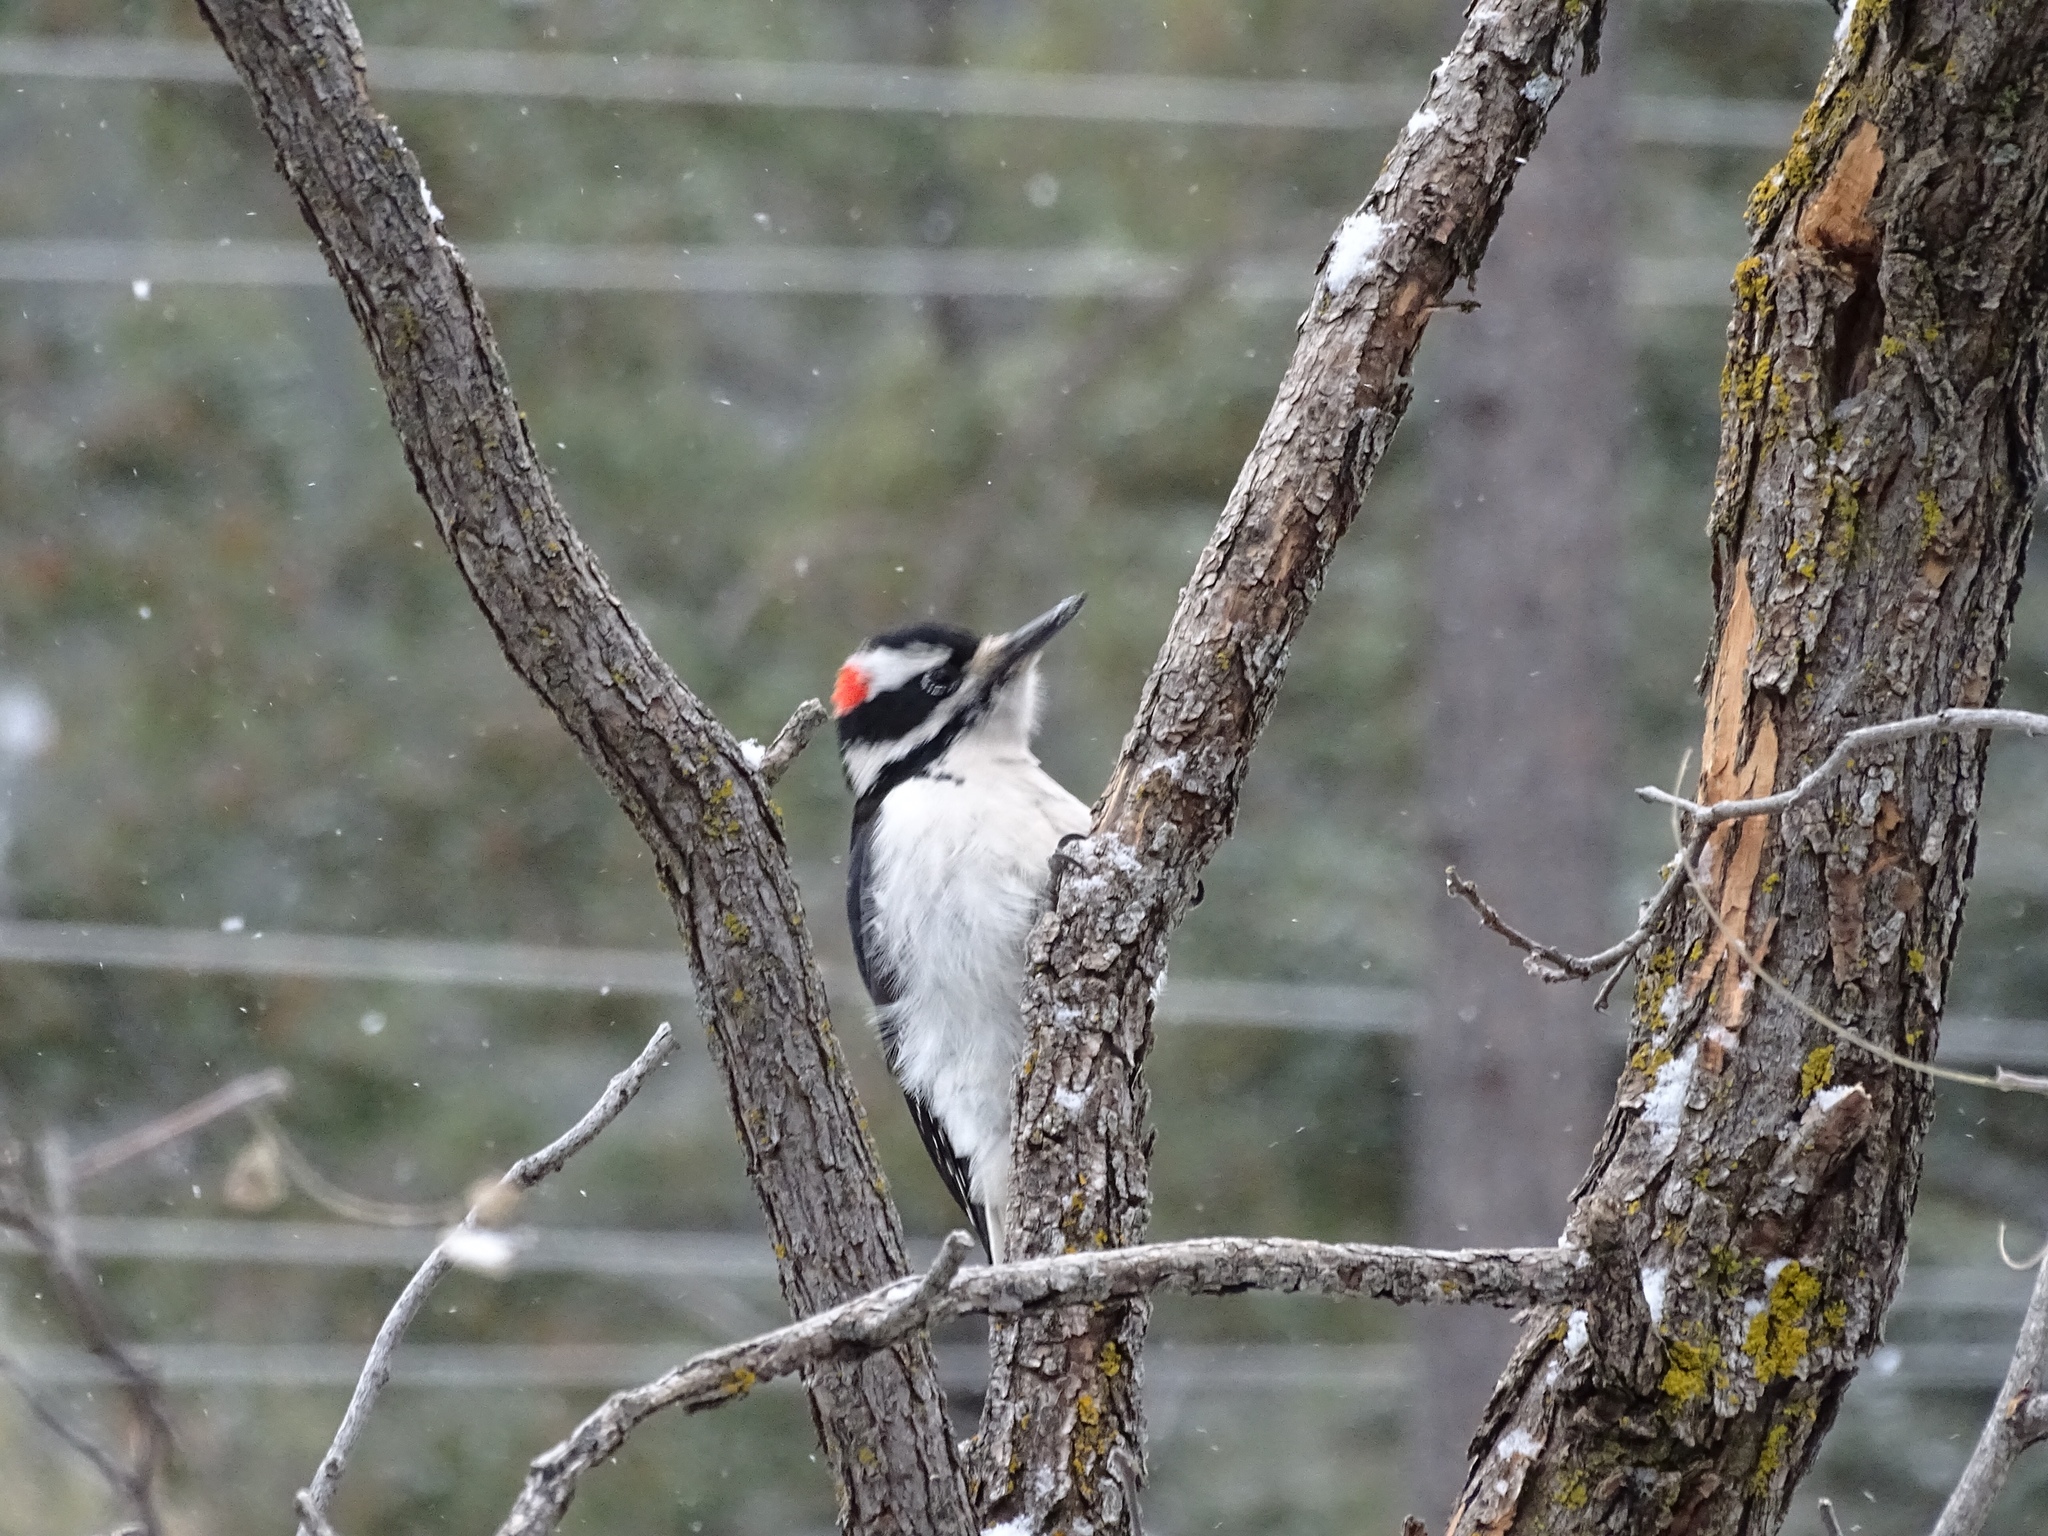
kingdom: Animalia
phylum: Chordata
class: Aves
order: Piciformes
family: Picidae
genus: Leuconotopicus
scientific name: Leuconotopicus villosus
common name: Hairy woodpecker
